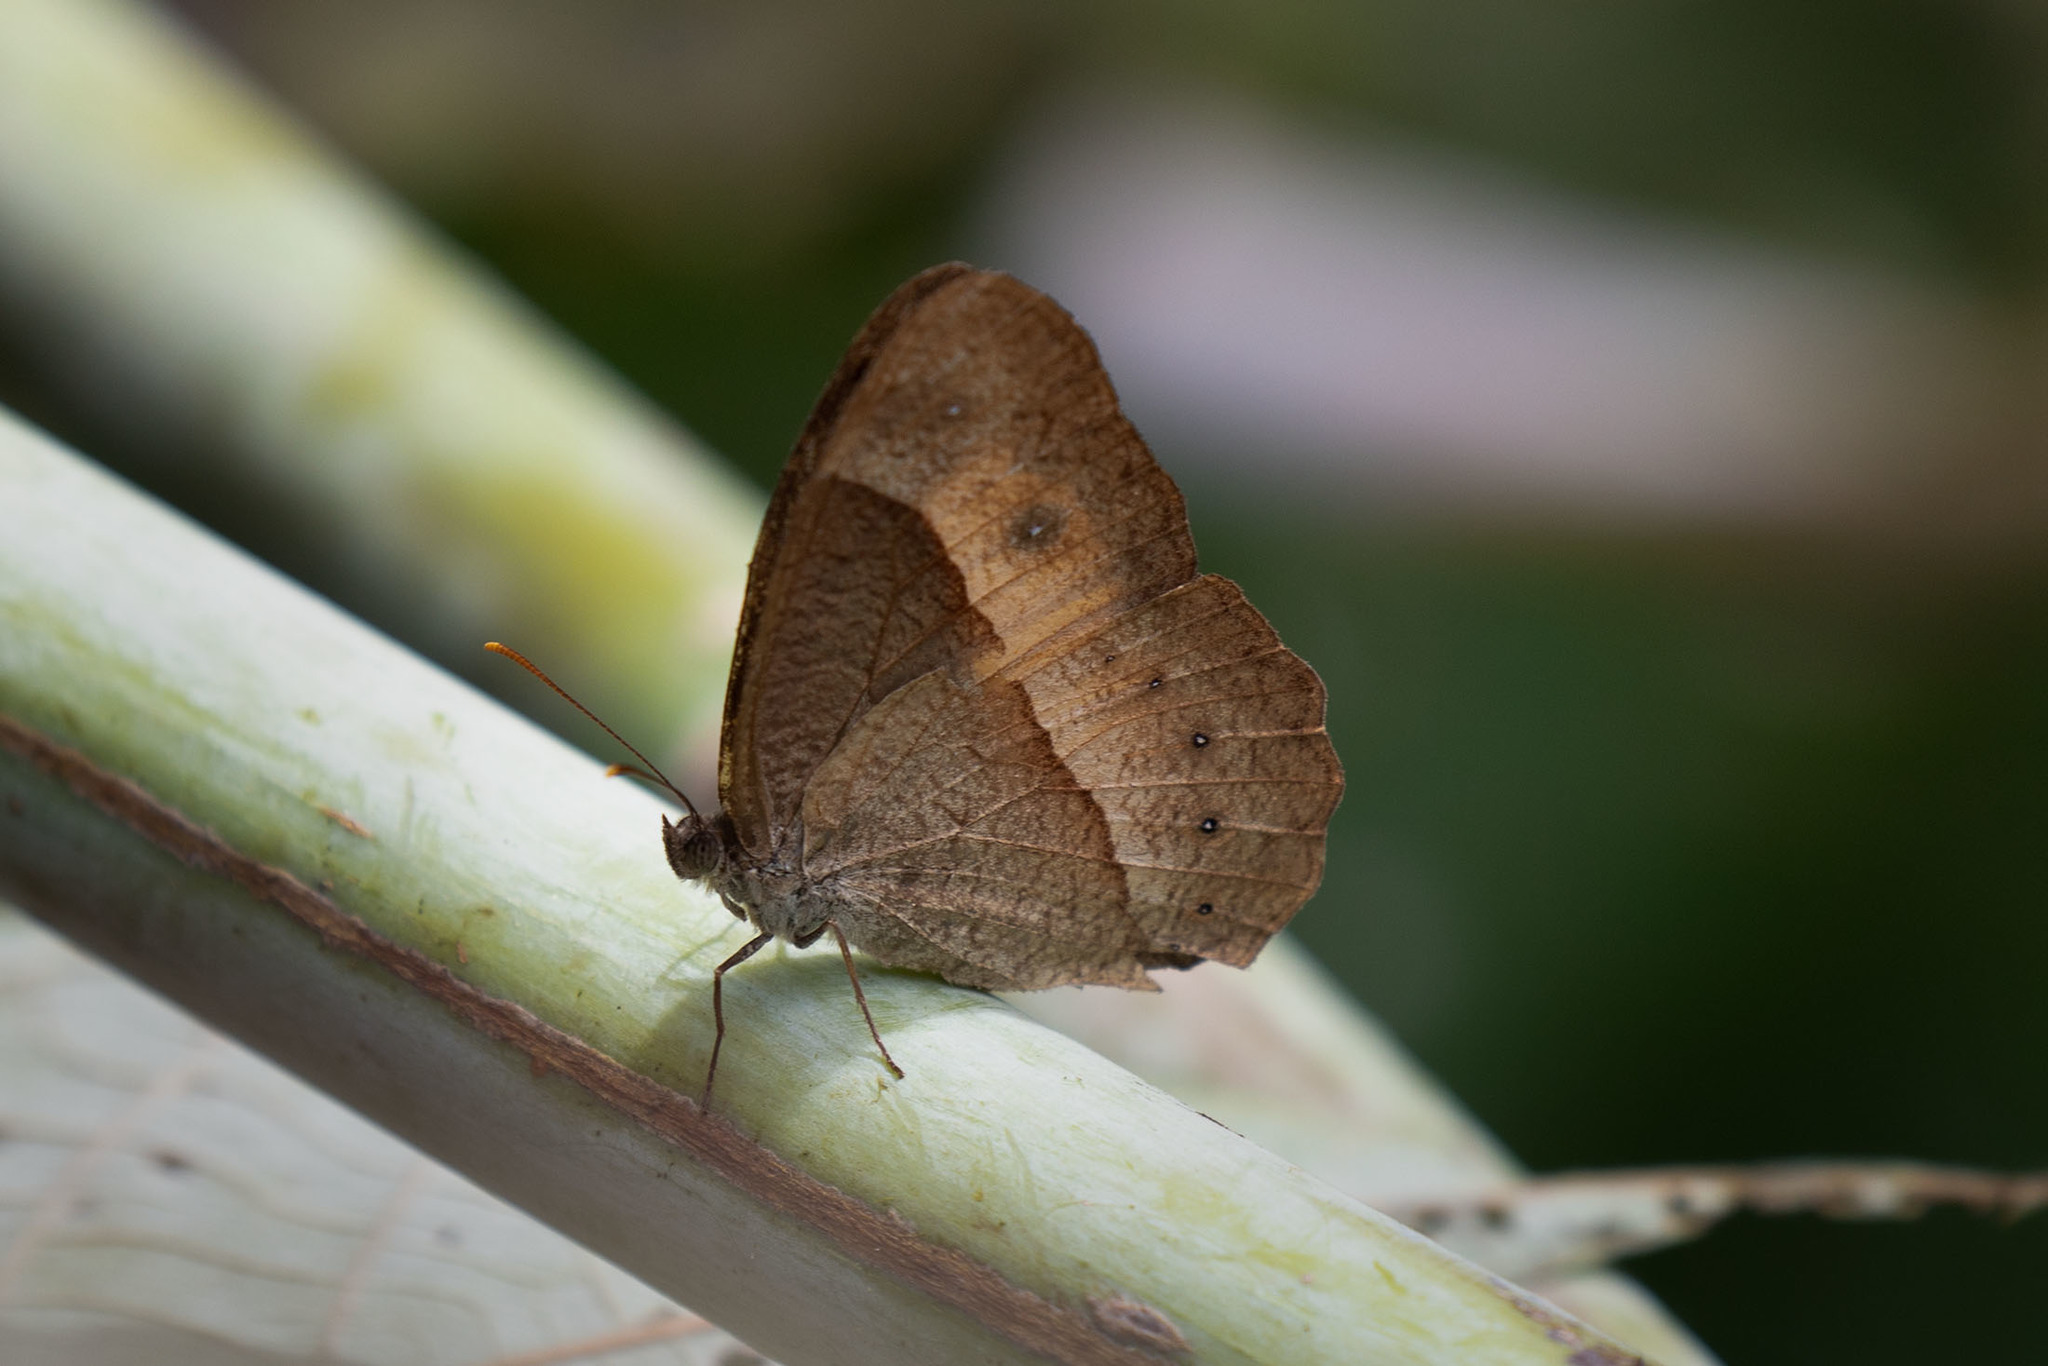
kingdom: Animalia
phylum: Arthropoda
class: Insecta
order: Lepidoptera
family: Nymphalidae
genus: Mycalesis
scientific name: Mycalesis discobolus
